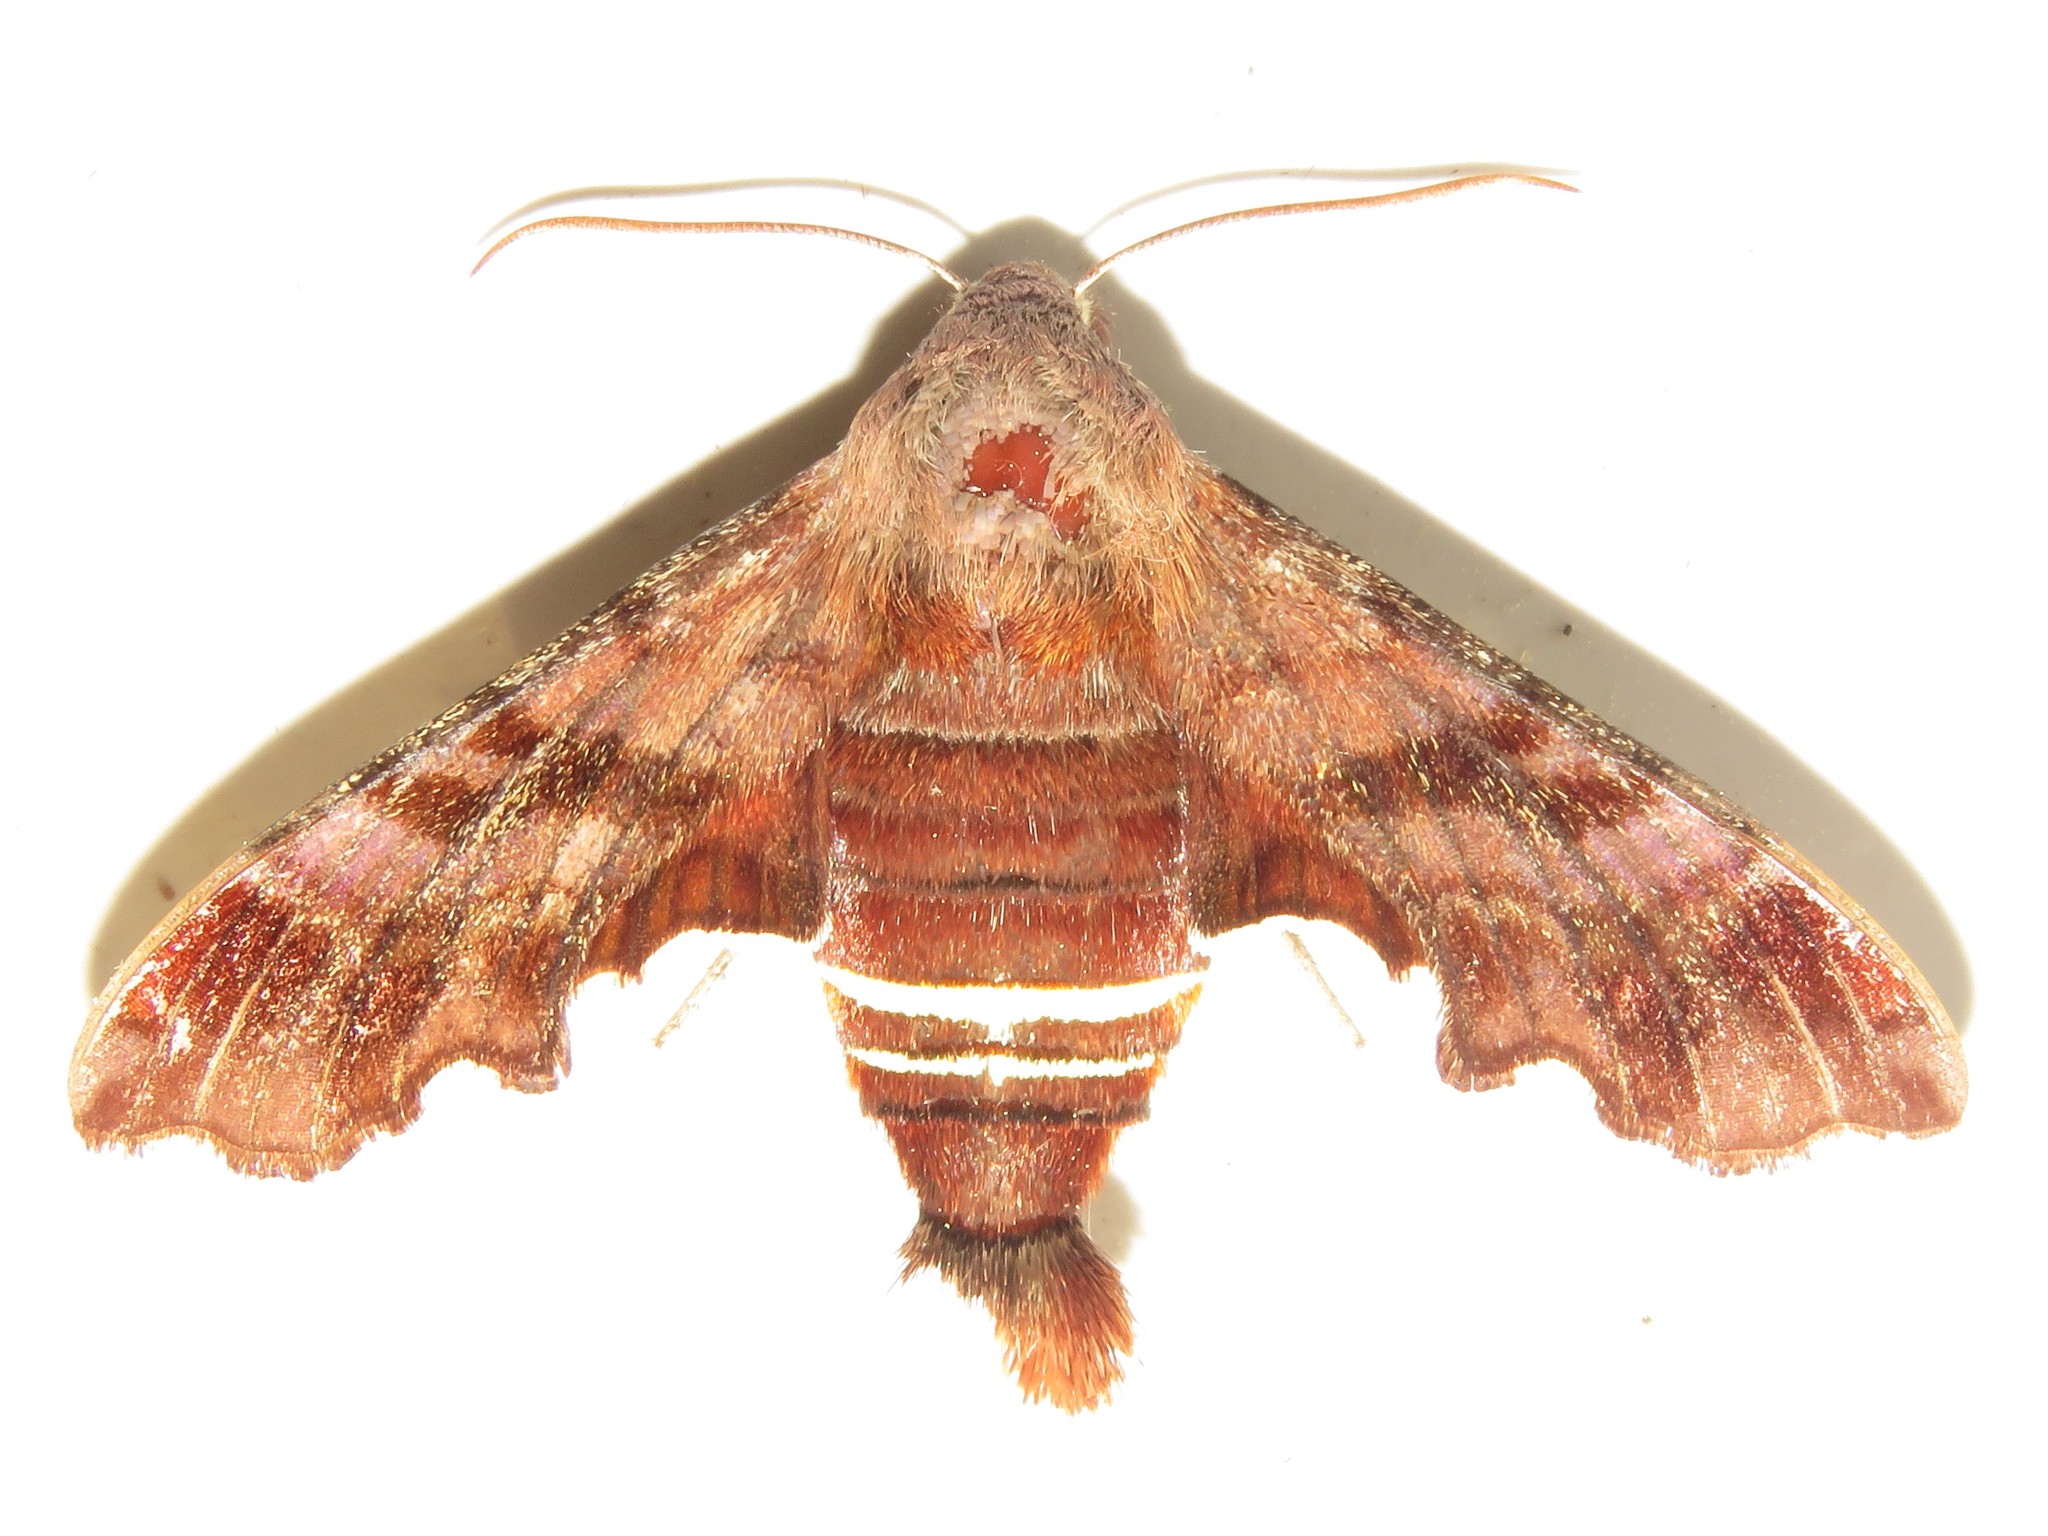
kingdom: Animalia
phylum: Arthropoda
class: Insecta
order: Lepidoptera
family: Sphingidae
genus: Amphion
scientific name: Amphion floridensis
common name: Nessus sphinx
